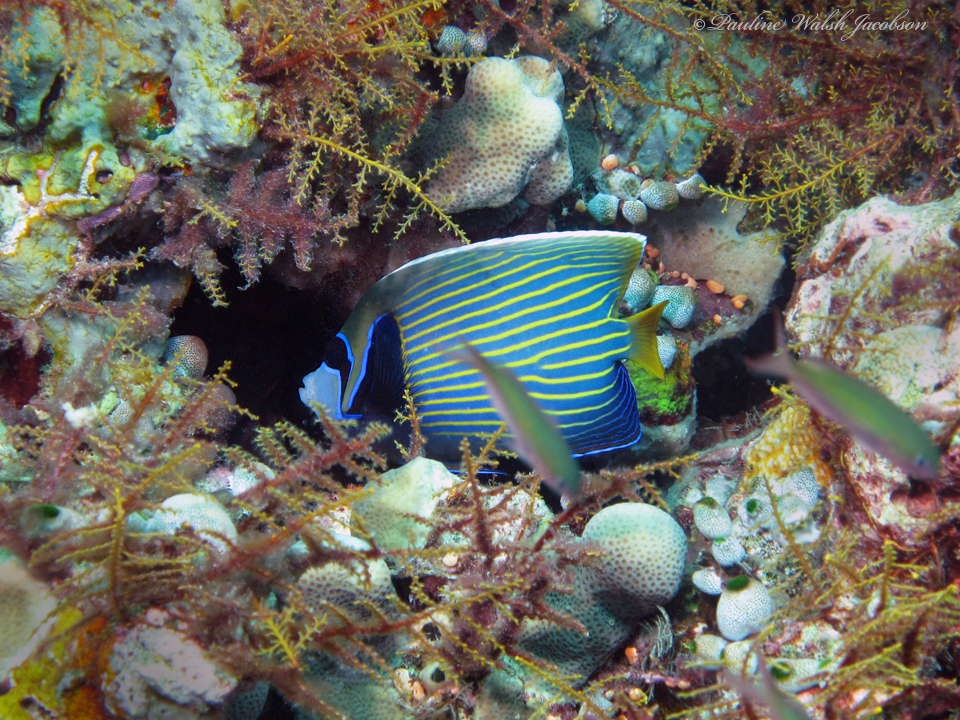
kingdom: Animalia
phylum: Chordata
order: Perciformes
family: Pomacanthidae
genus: Pomacanthus
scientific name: Pomacanthus imperator
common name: Emperor angelfish
